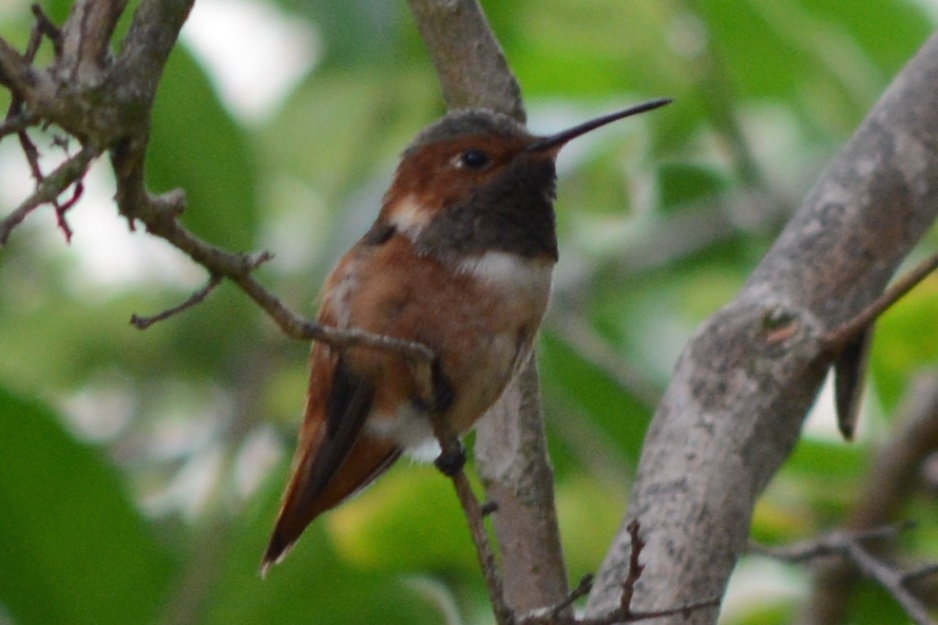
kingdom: Animalia
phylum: Chordata
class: Aves
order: Apodiformes
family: Trochilidae
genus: Selasphorus
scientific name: Selasphorus sasin
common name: Allen's hummingbird
